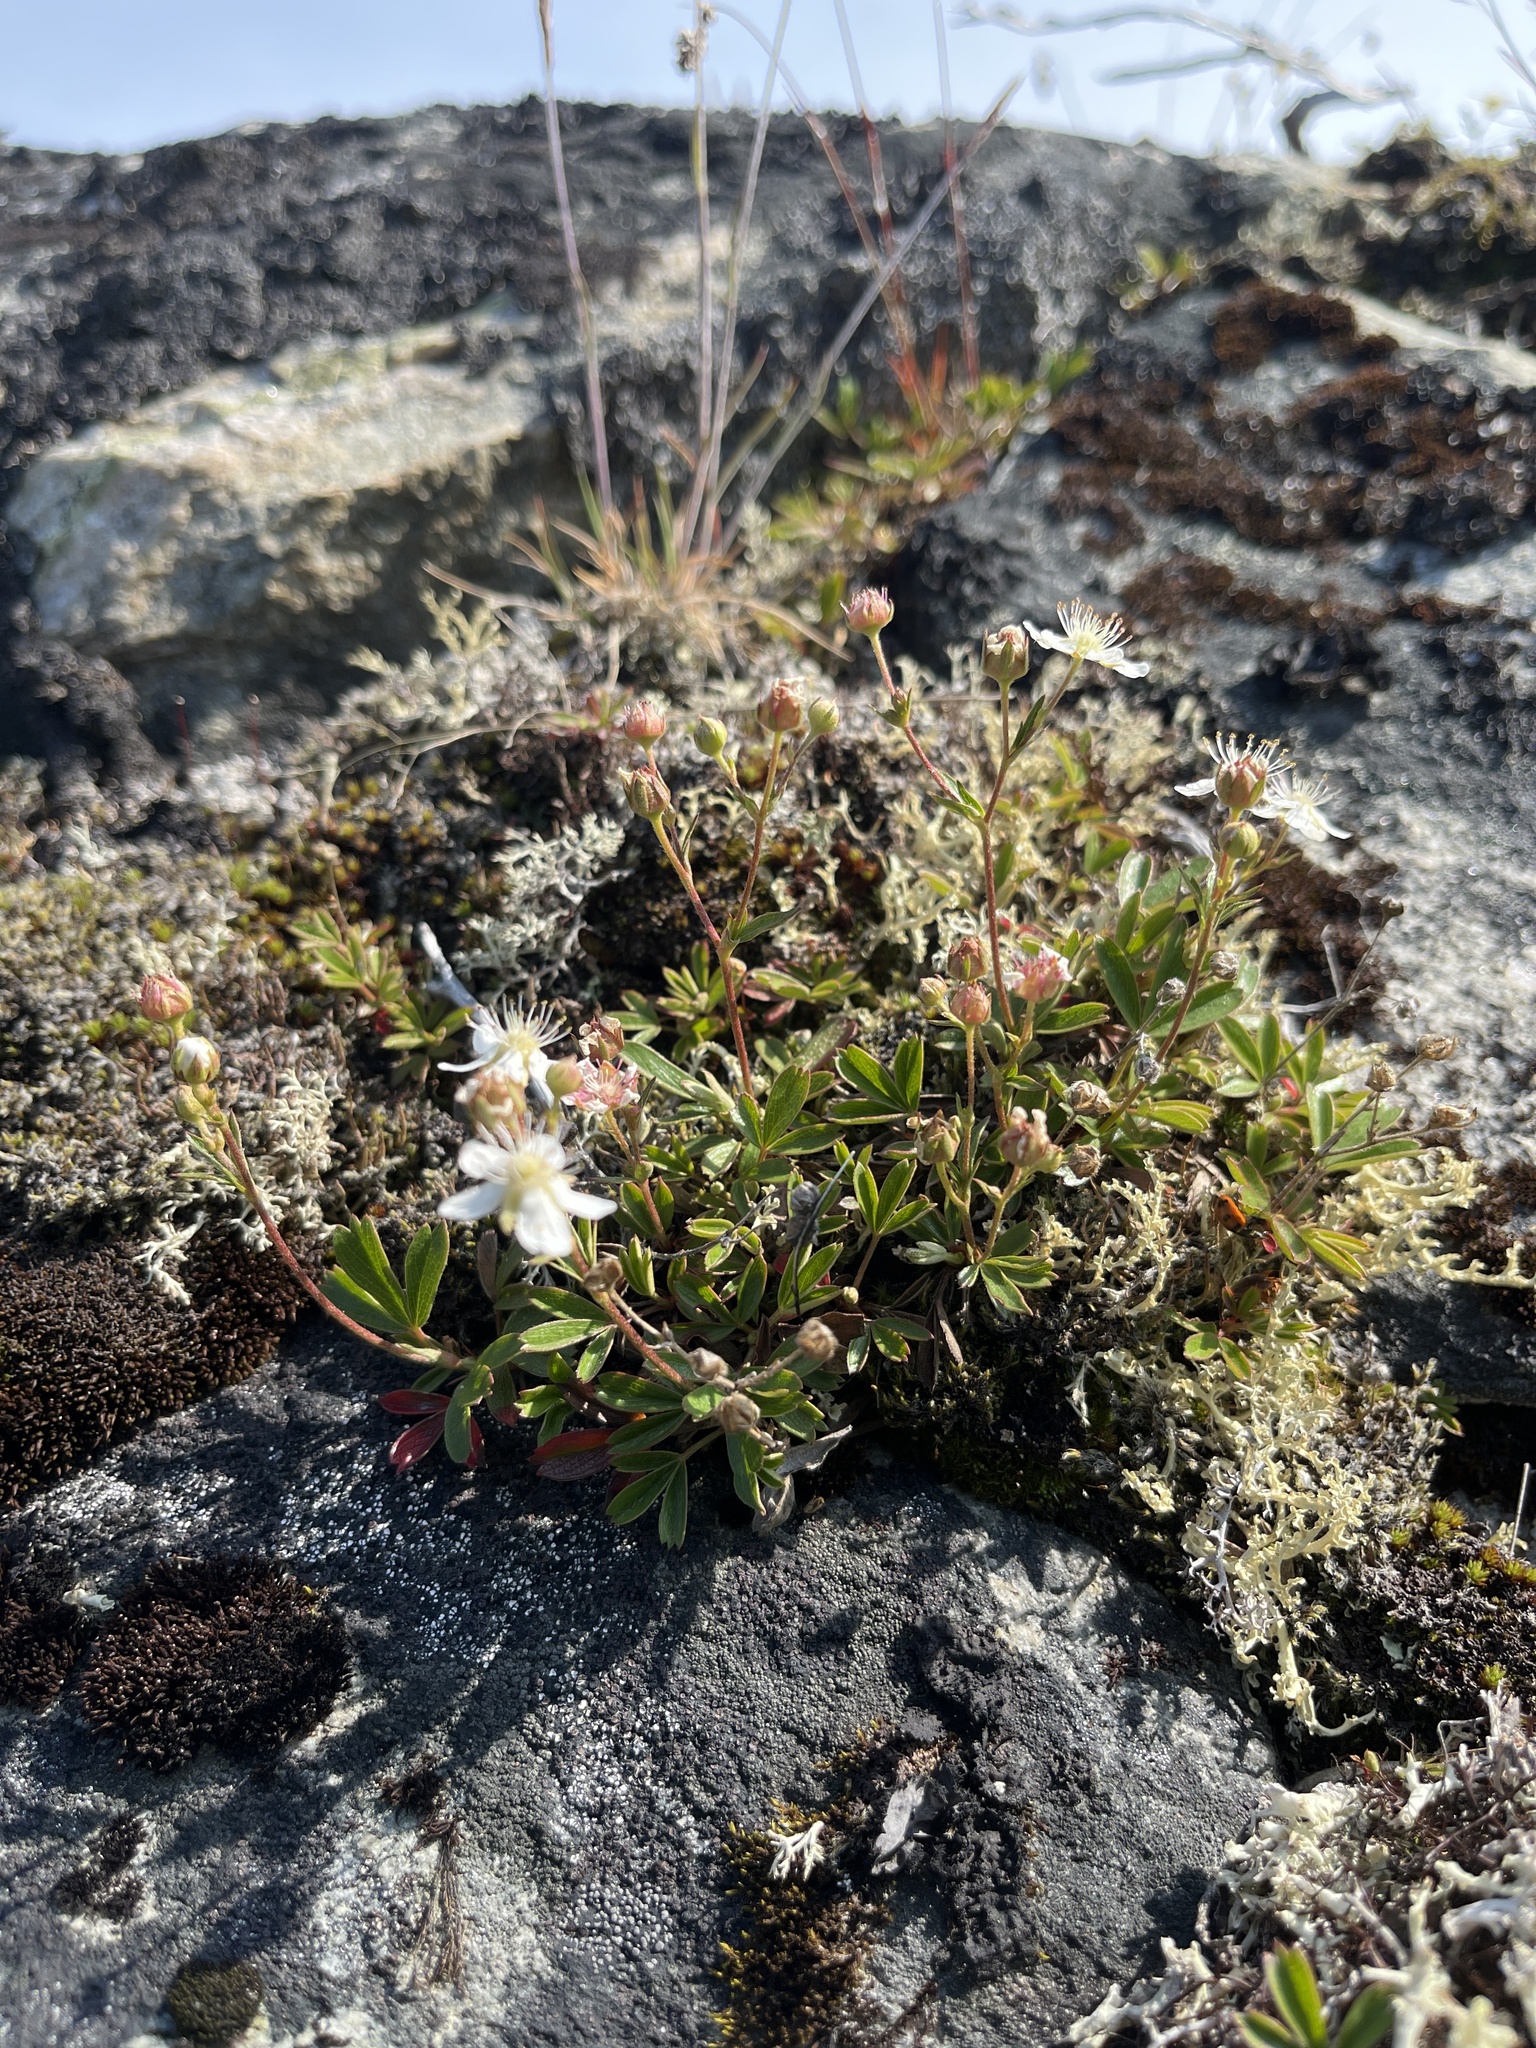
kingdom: Plantae
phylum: Tracheophyta
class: Magnoliopsida
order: Rosales
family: Rosaceae
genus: Sibbaldia
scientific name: Sibbaldia tridentata
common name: Three-toothed cinquefoil
